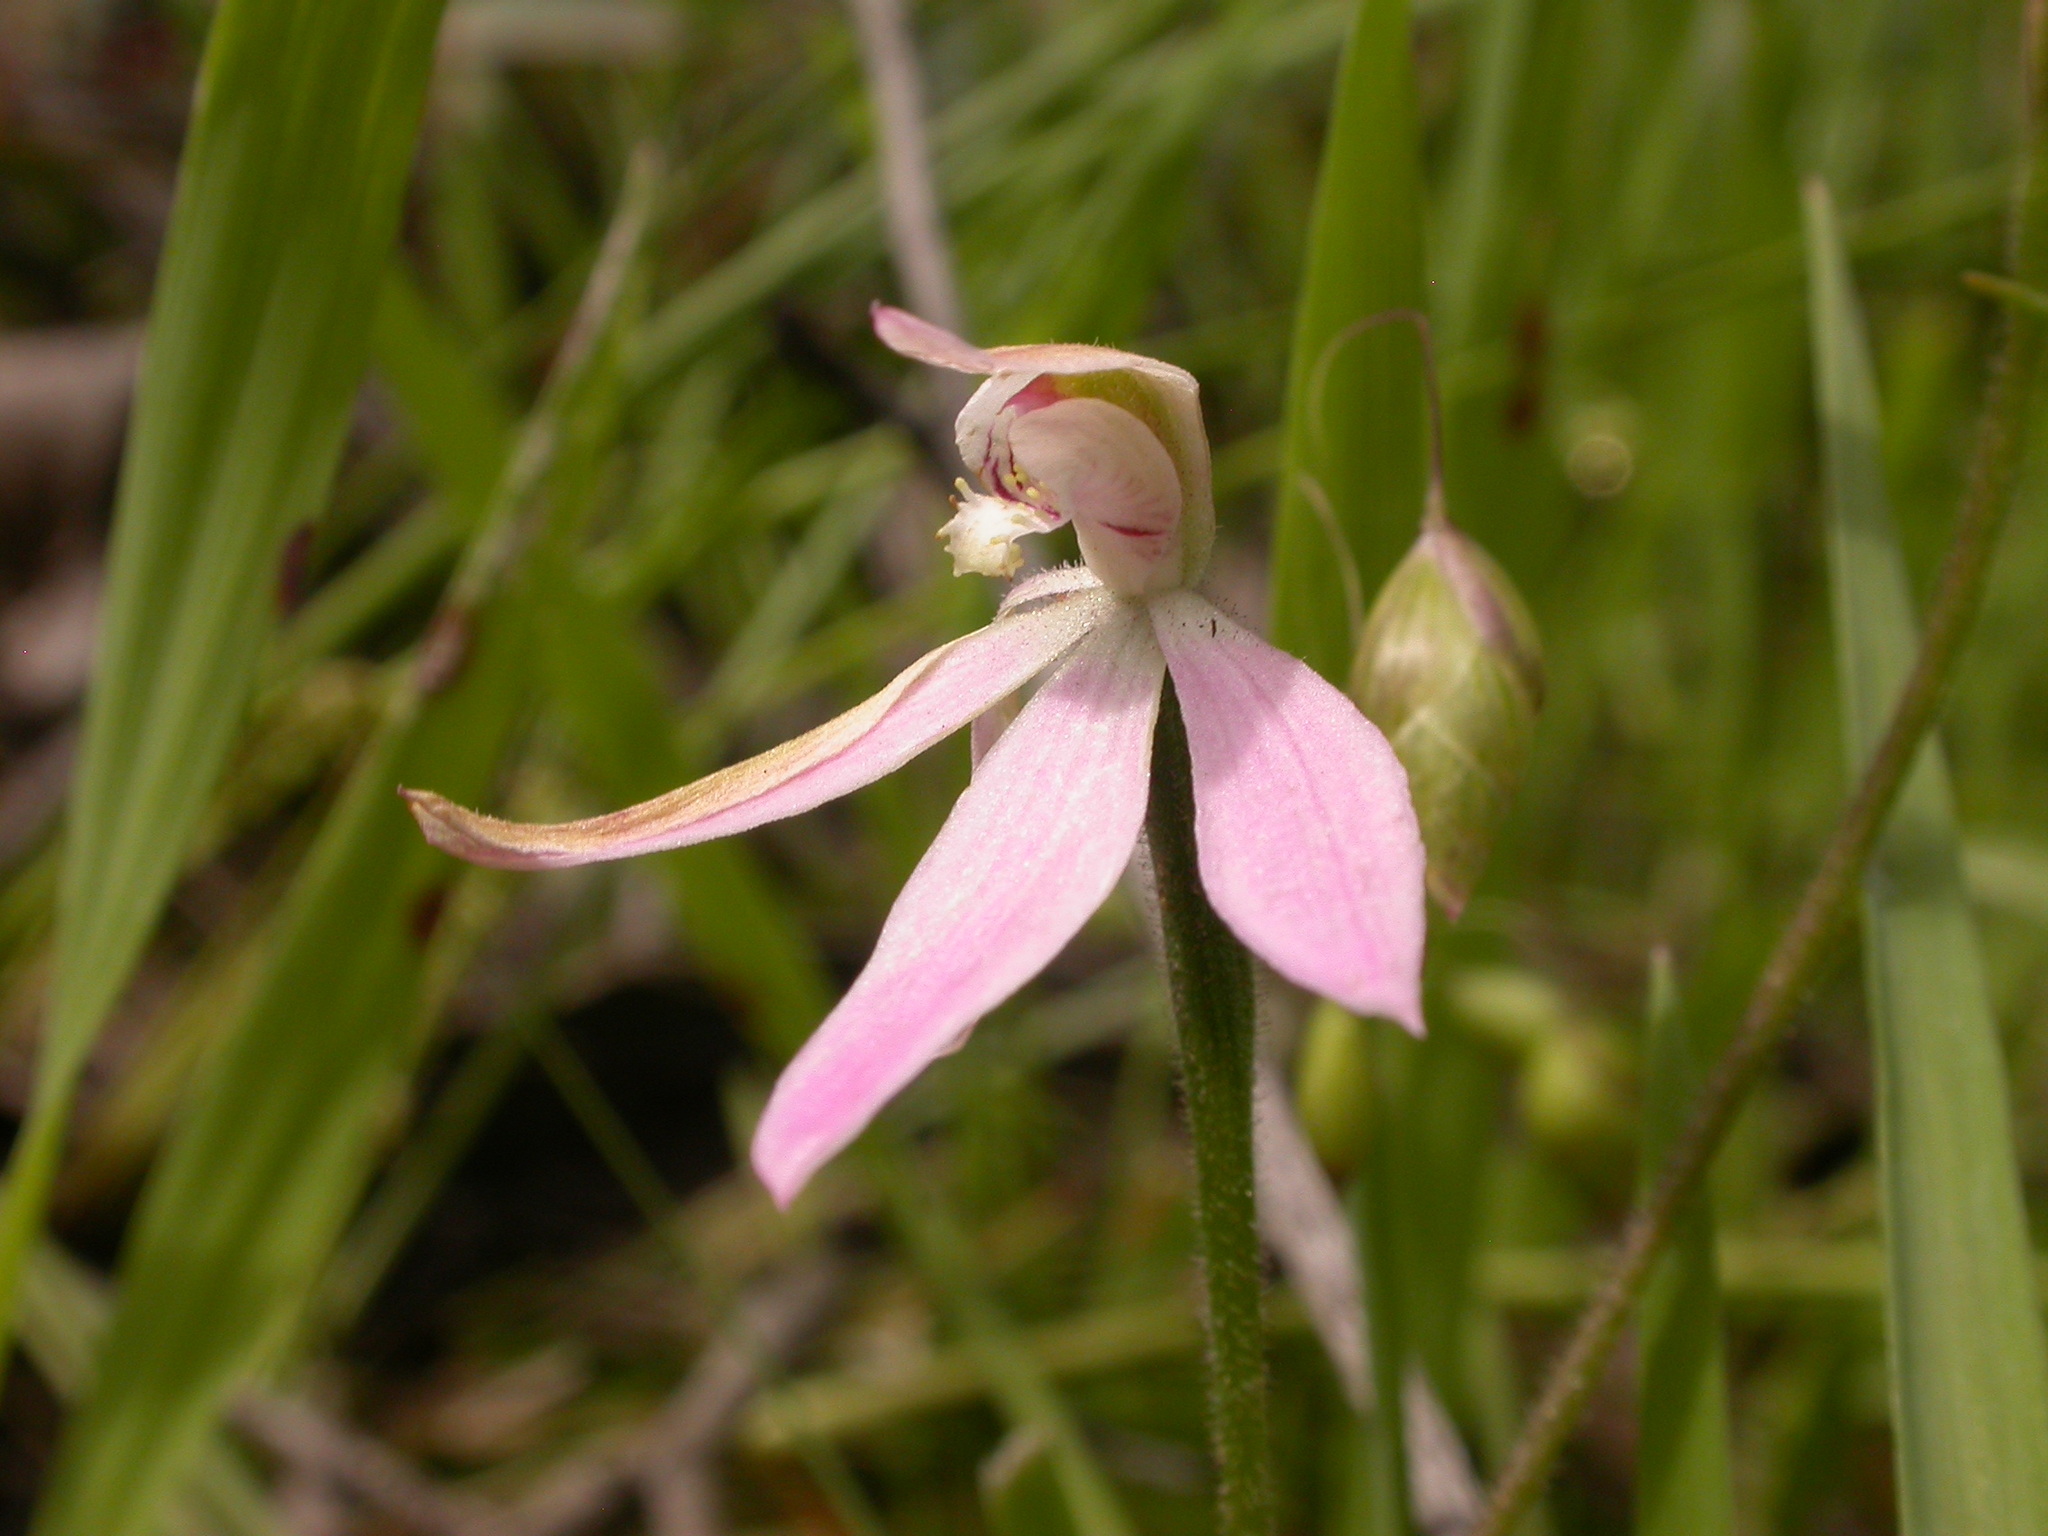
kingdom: Plantae
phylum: Tracheophyta
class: Liliopsida
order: Asparagales
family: Orchidaceae
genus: Caladenia
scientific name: Caladenia carnea
